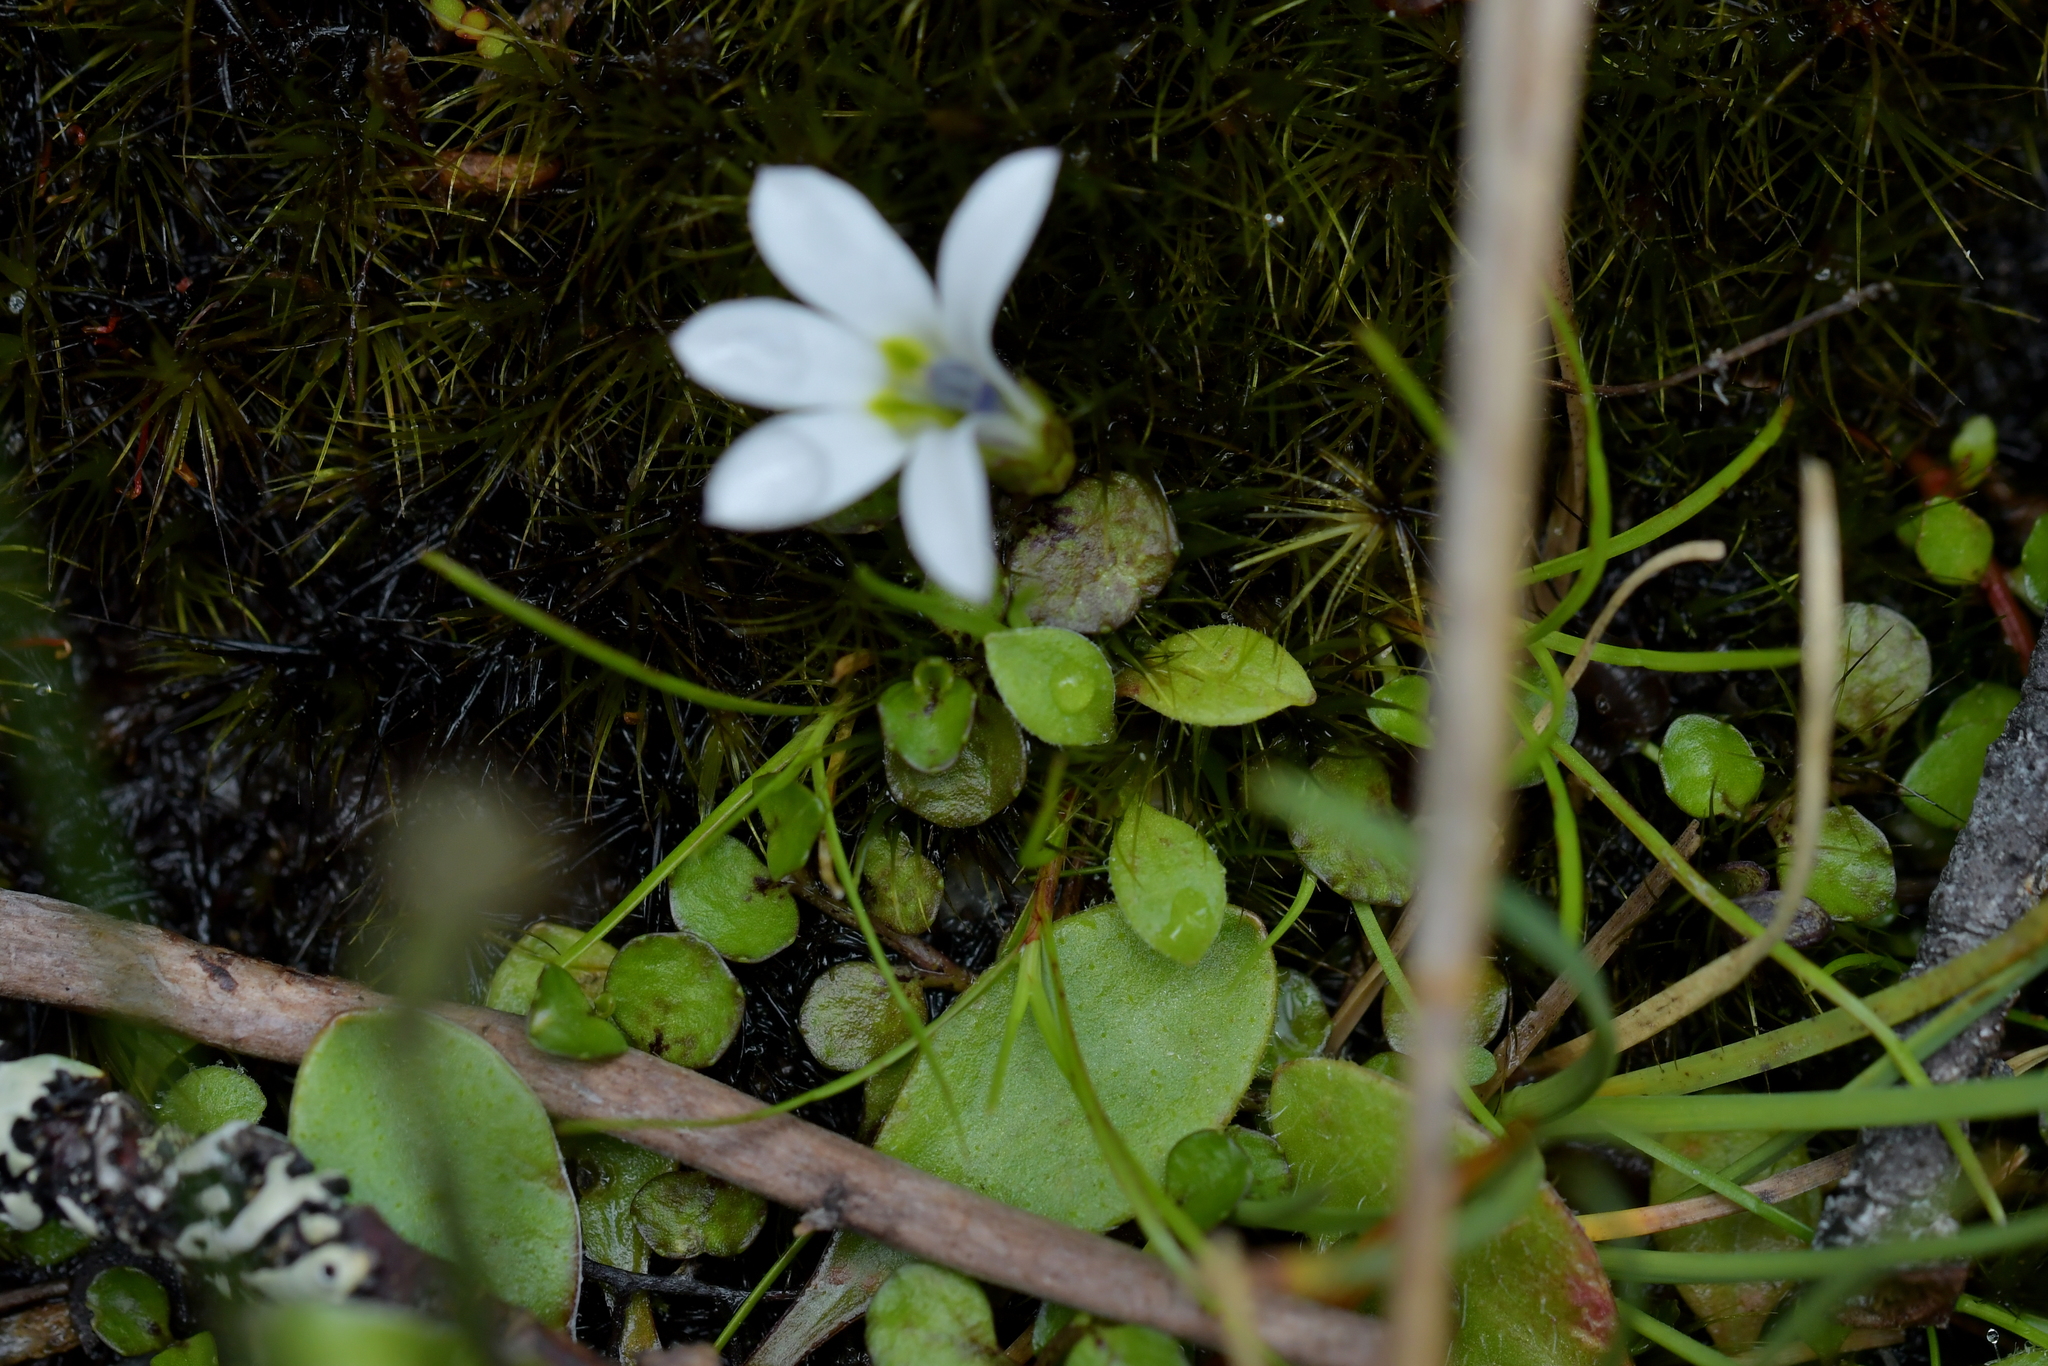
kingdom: Plantae
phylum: Tracheophyta
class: Magnoliopsida
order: Asterales
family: Campanulaceae
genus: Lobelia
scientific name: Lobelia angulata
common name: Lawn lobelia
